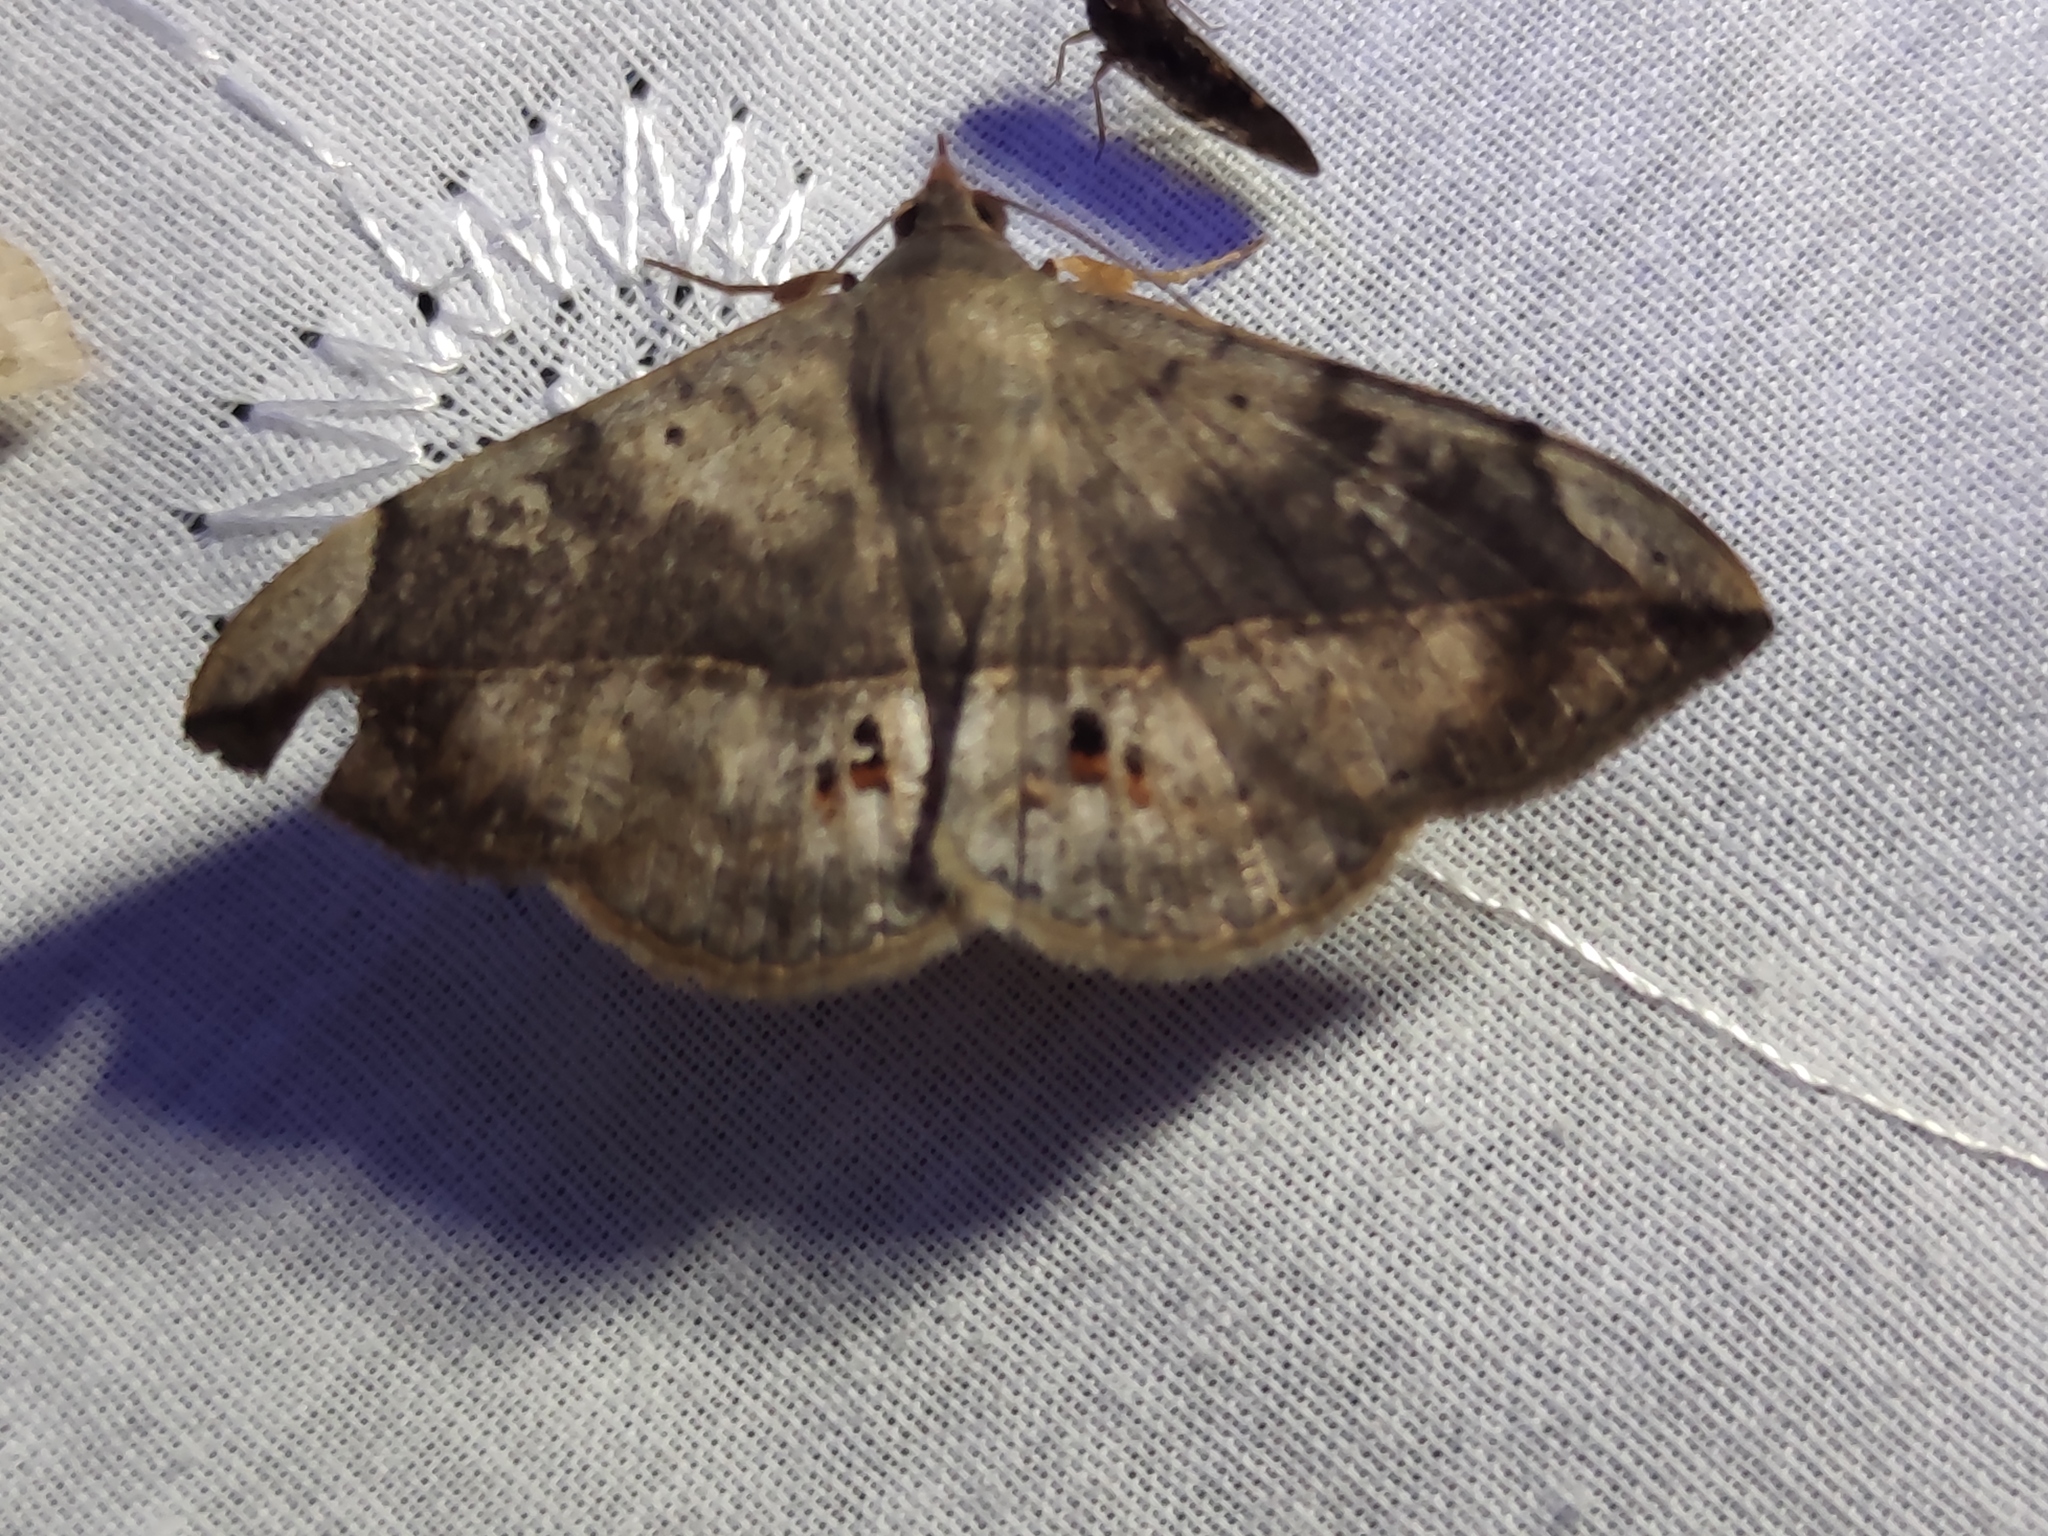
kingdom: Animalia
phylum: Arthropoda
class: Insecta
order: Lepidoptera
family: Erebidae
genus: Anticarsia
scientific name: Anticarsia gemmatalis
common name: Cutworm moth
